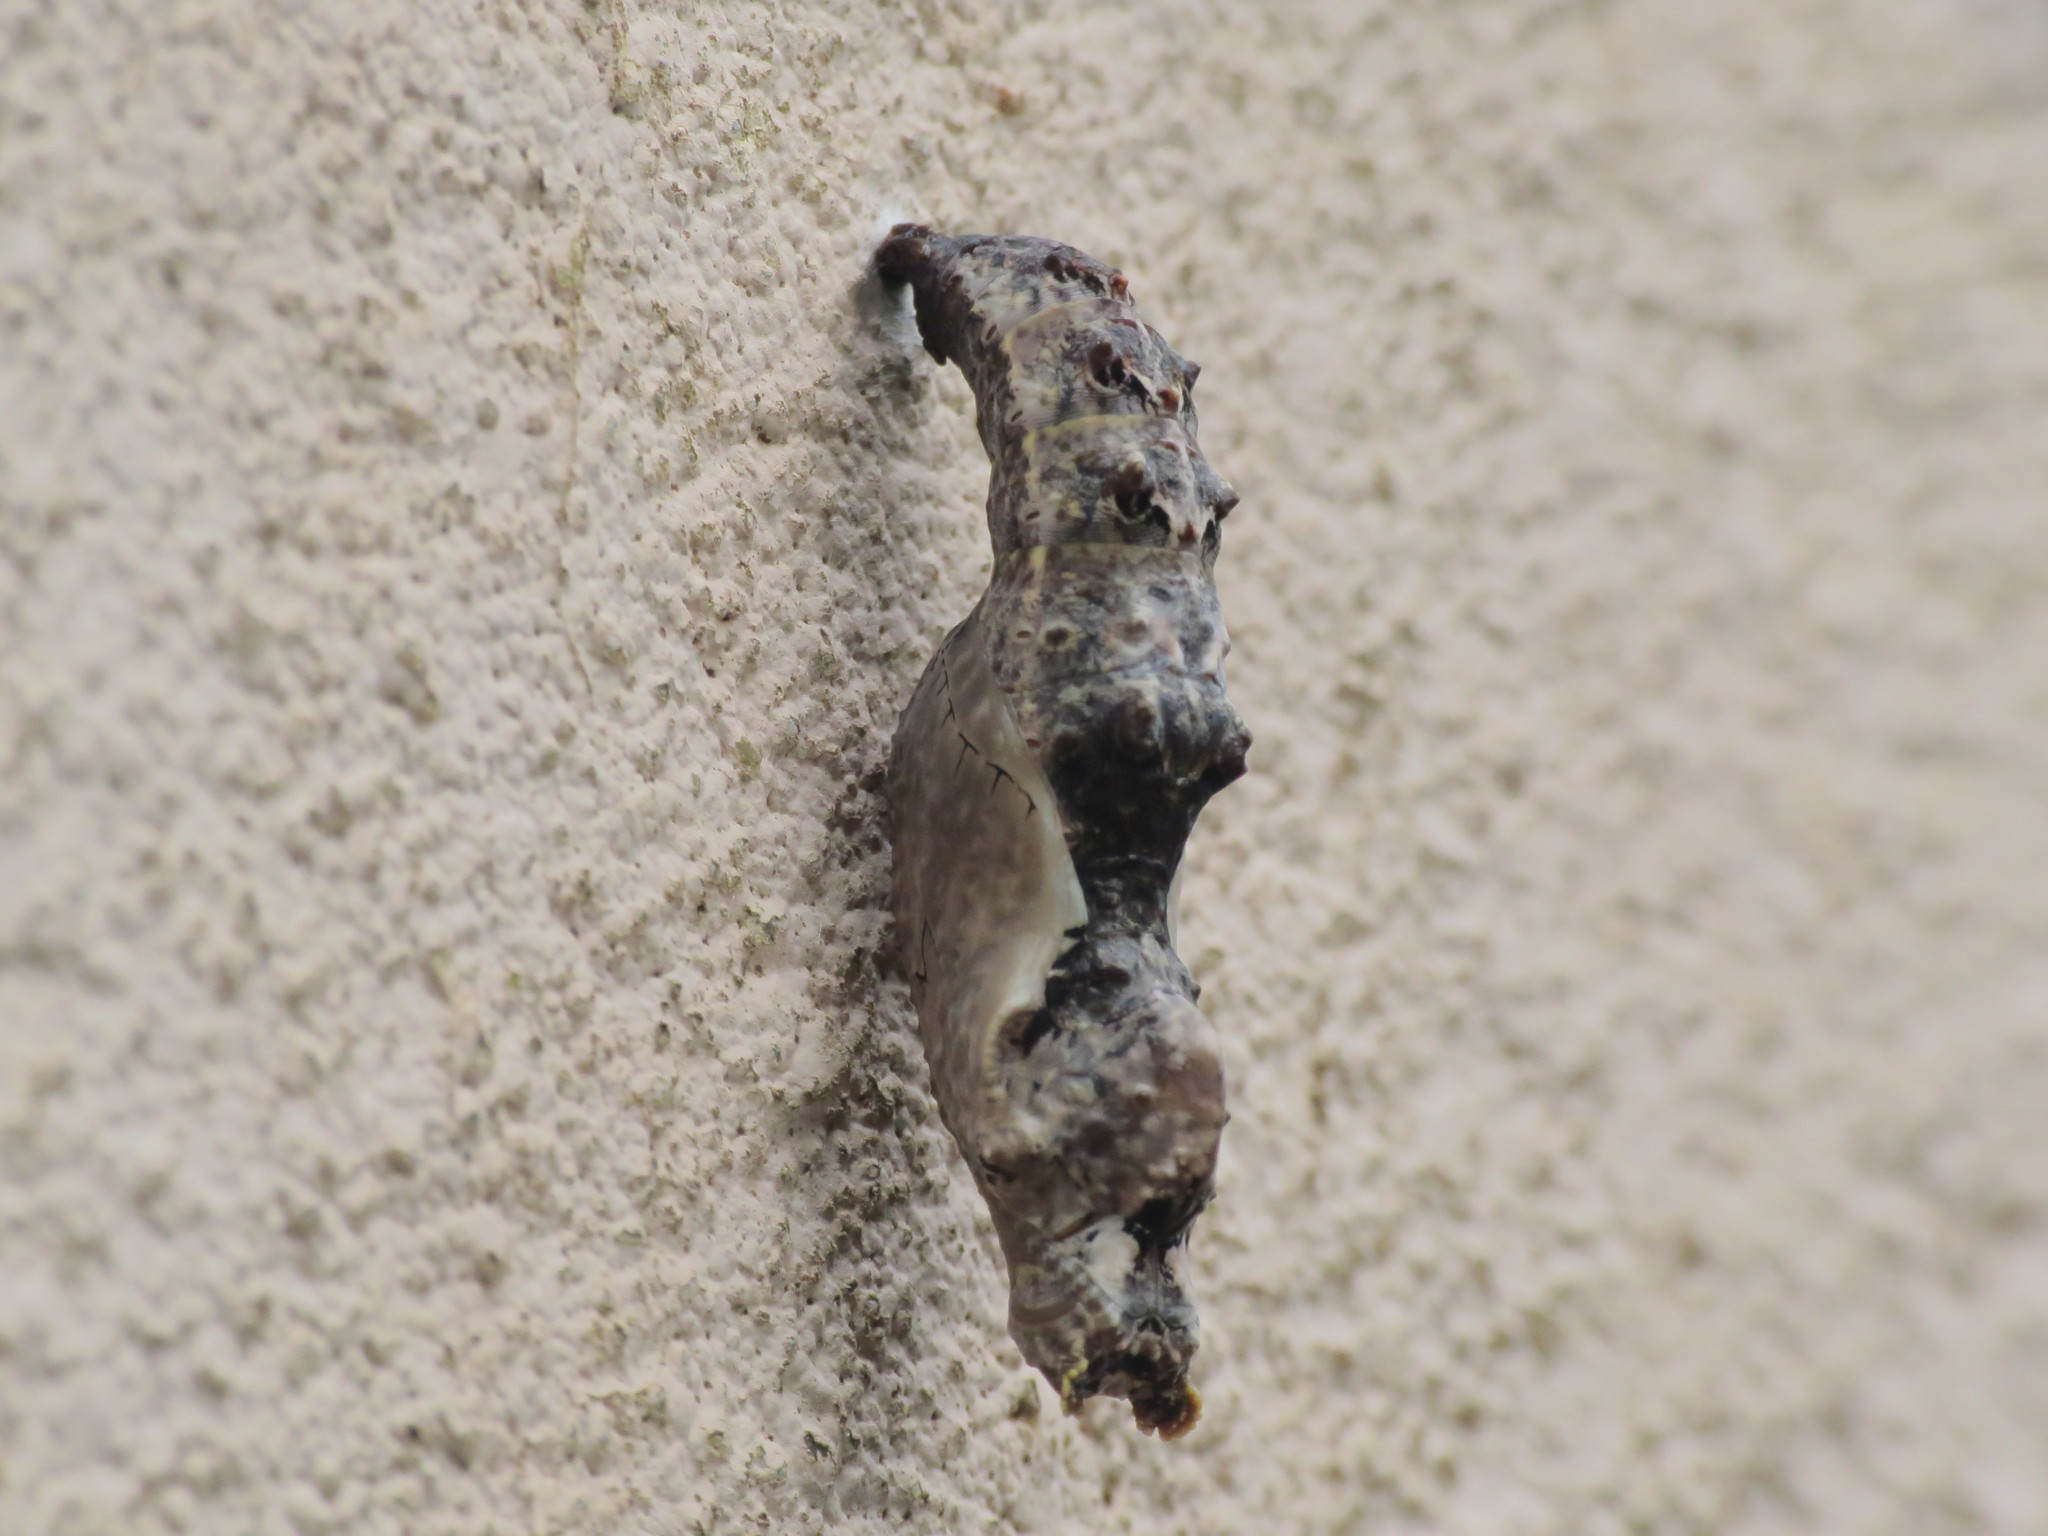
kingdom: Animalia
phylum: Arthropoda
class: Insecta
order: Lepidoptera
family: Nymphalidae
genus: Dione
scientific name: Dione vanillae
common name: Gulf fritillary
